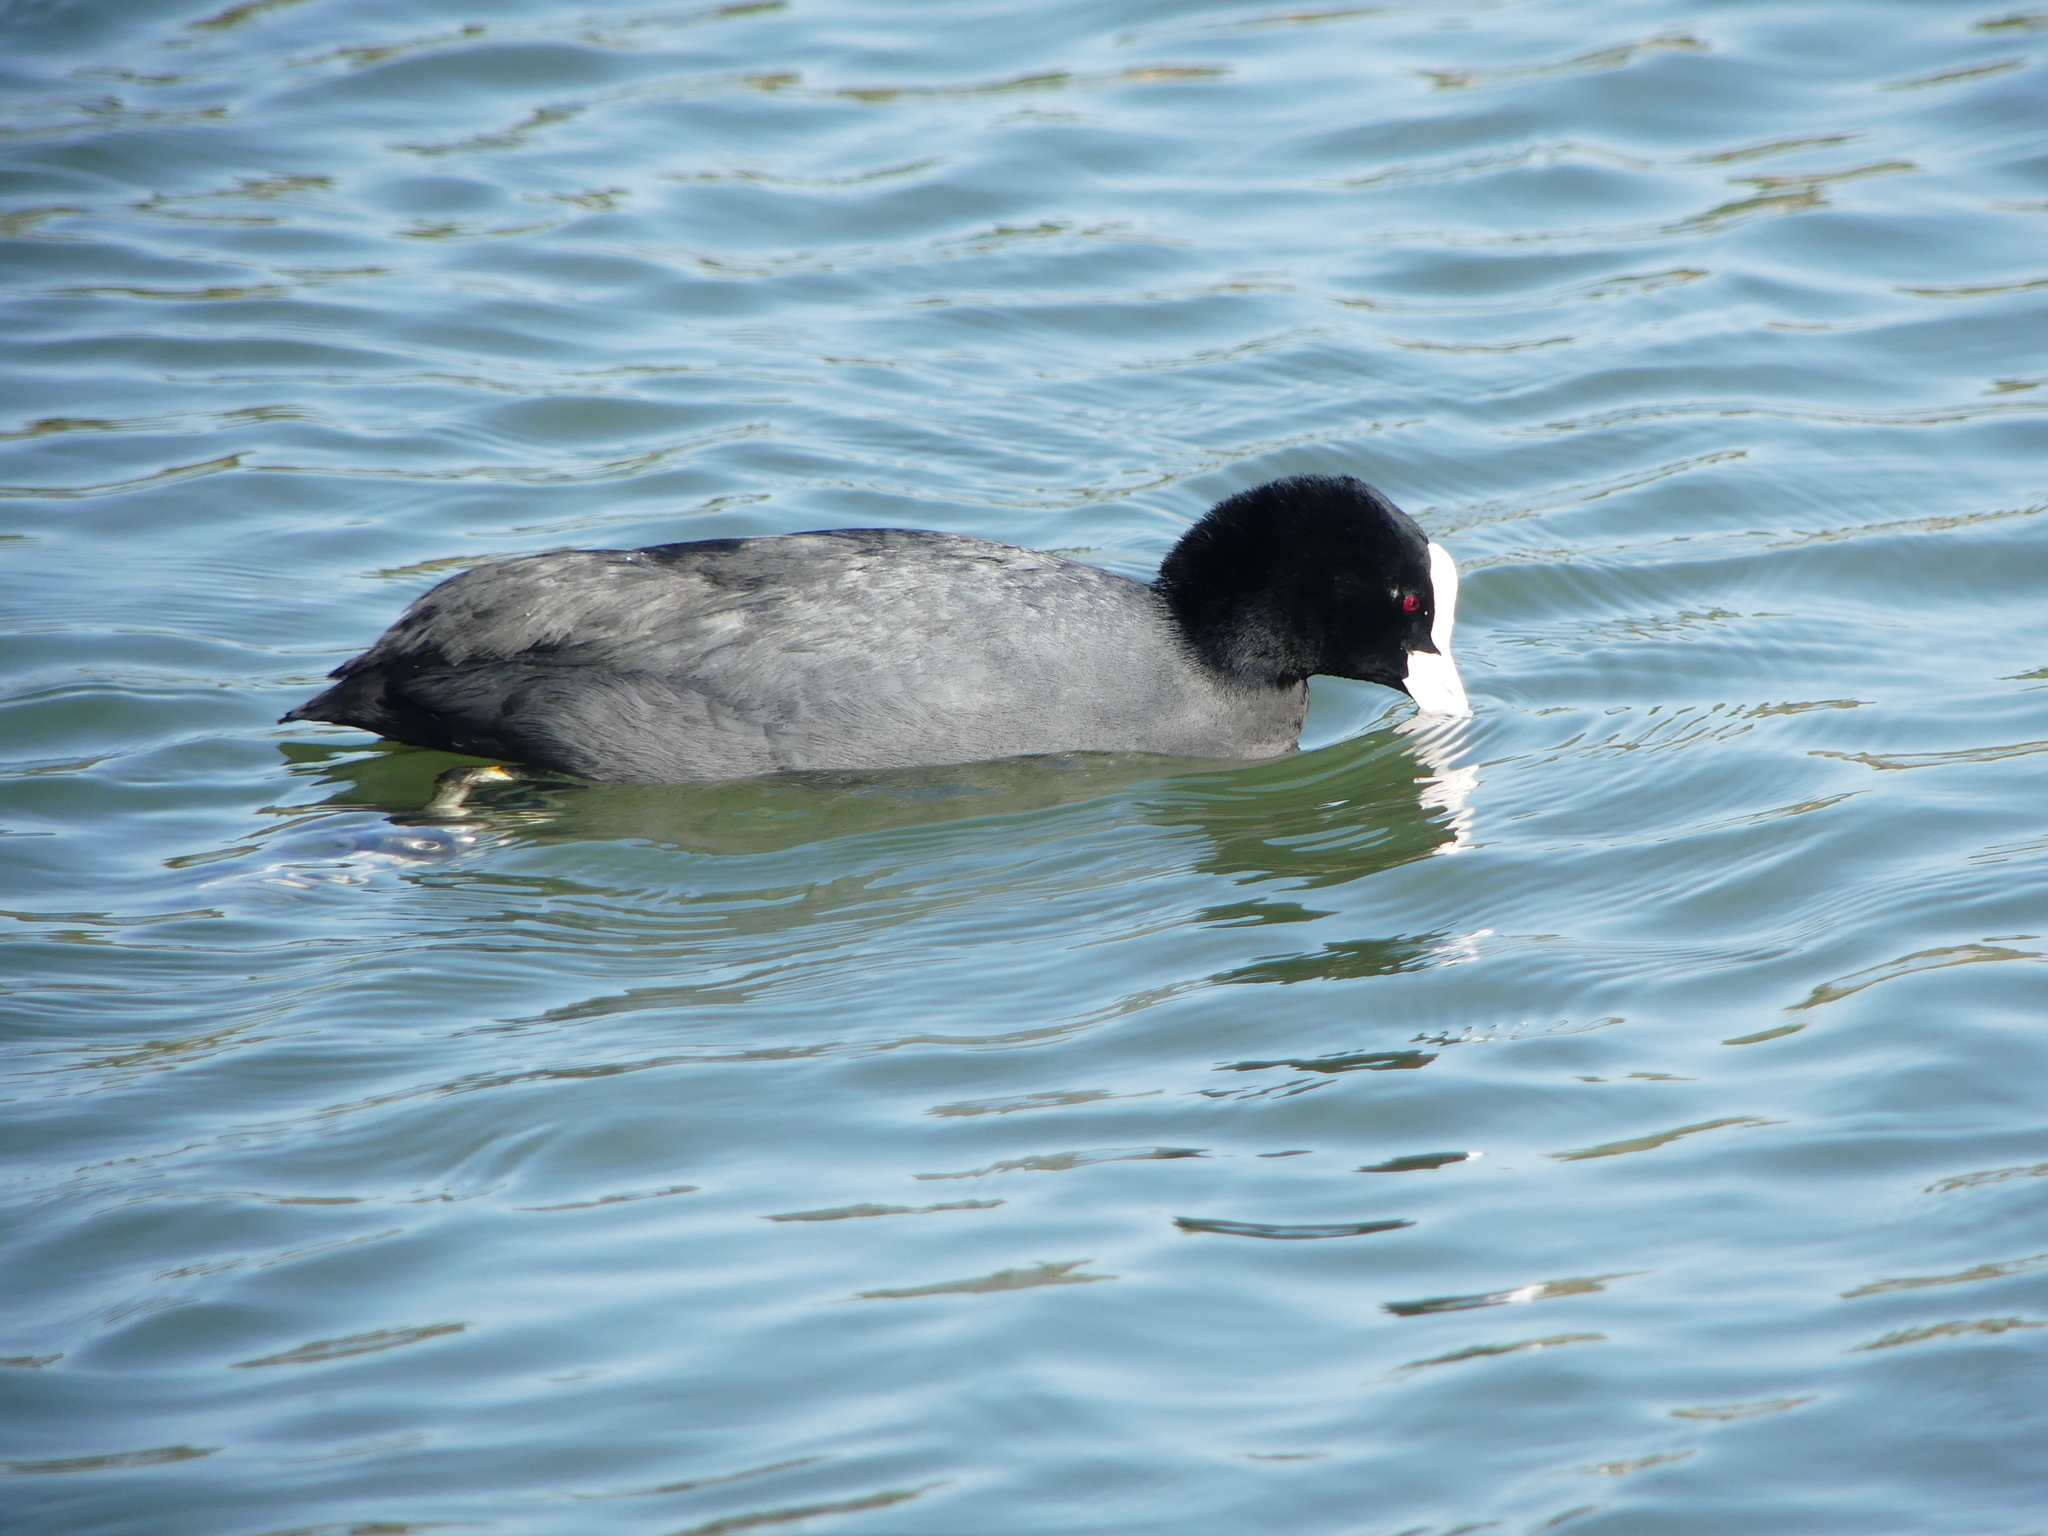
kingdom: Animalia
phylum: Chordata
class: Aves
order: Gruiformes
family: Rallidae
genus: Fulica
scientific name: Fulica atra
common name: Eurasian coot
